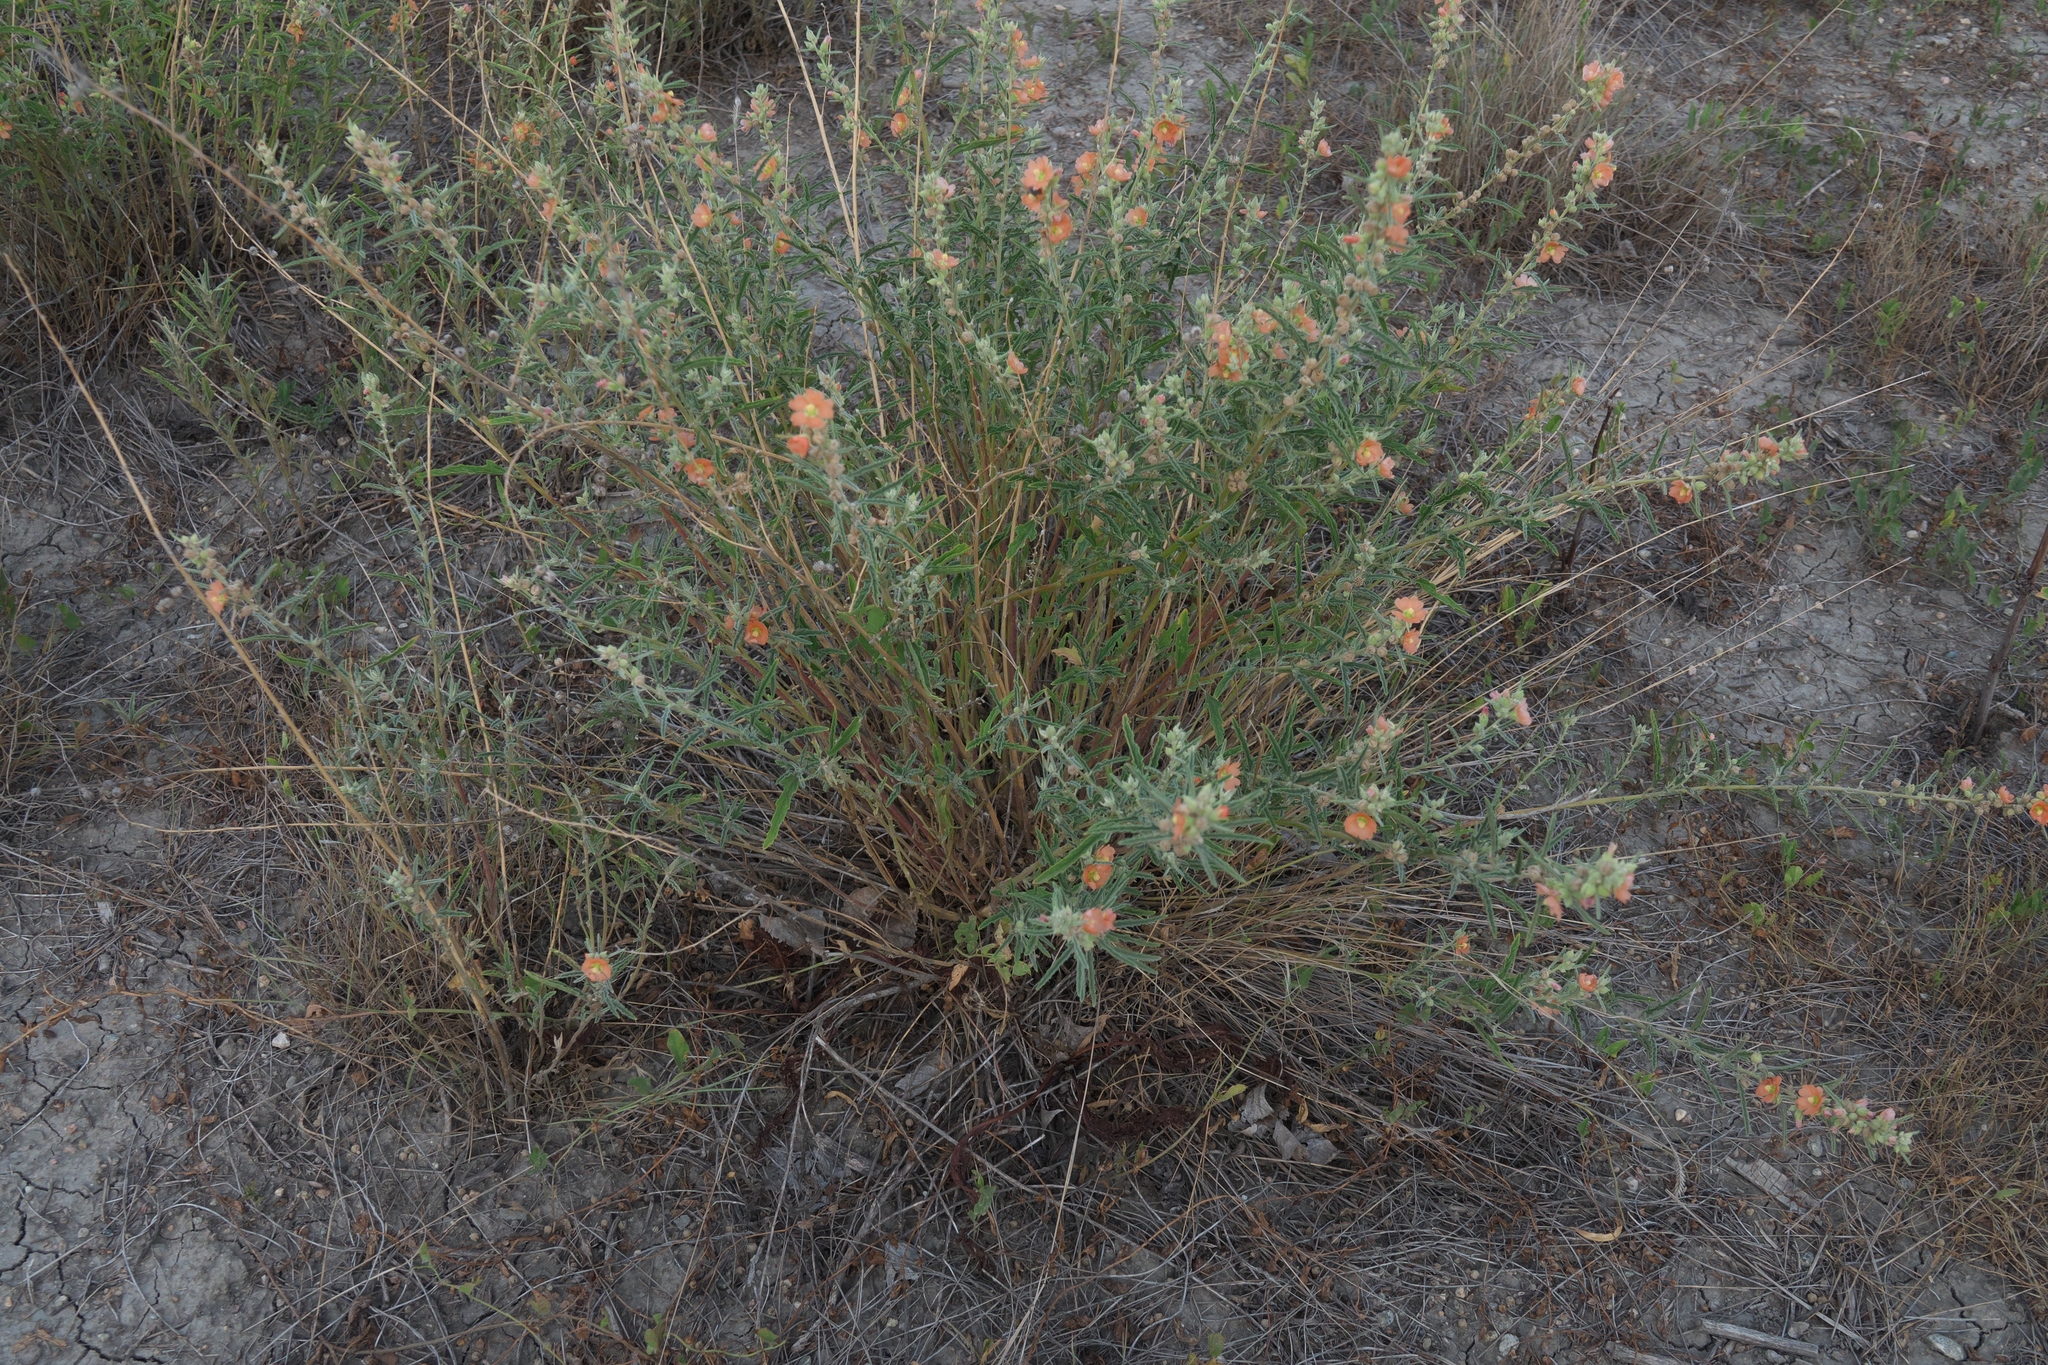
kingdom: Plantae
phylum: Tracheophyta
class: Magnoliopsida
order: Malvales
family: Malvaceae
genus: Sphaeralcea
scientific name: Sphaeralcea angustifolia
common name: Copper globe-mallow
